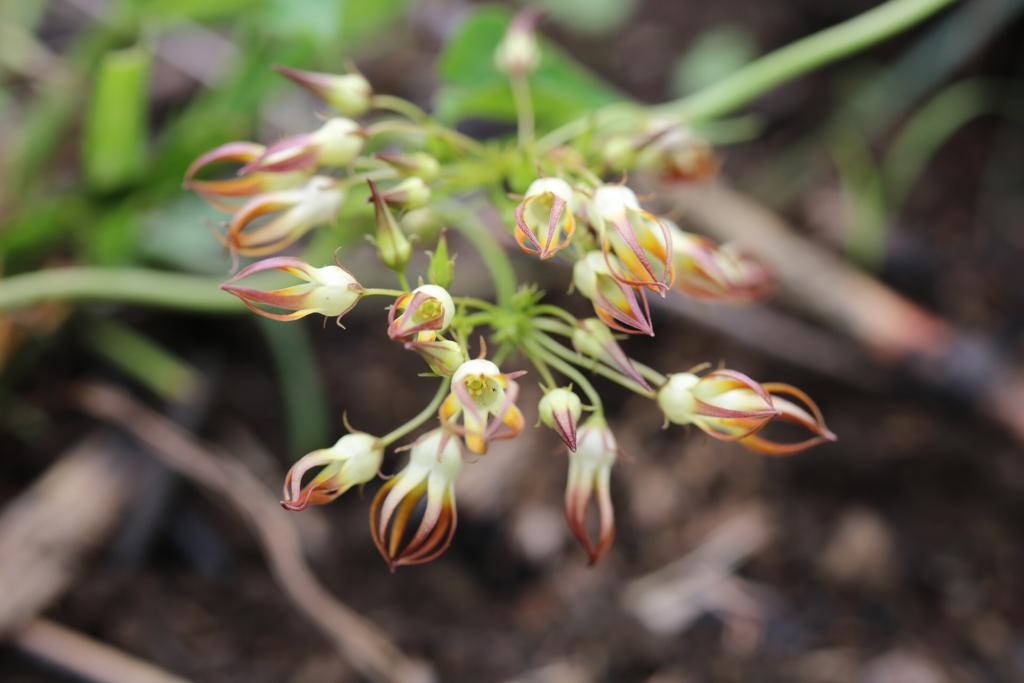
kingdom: Plantae
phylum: Tracheophyta
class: Magnoliopsida
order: Gentianales
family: Apocynaceae
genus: Riocreuxia
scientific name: Riocreuxia alexandrina
